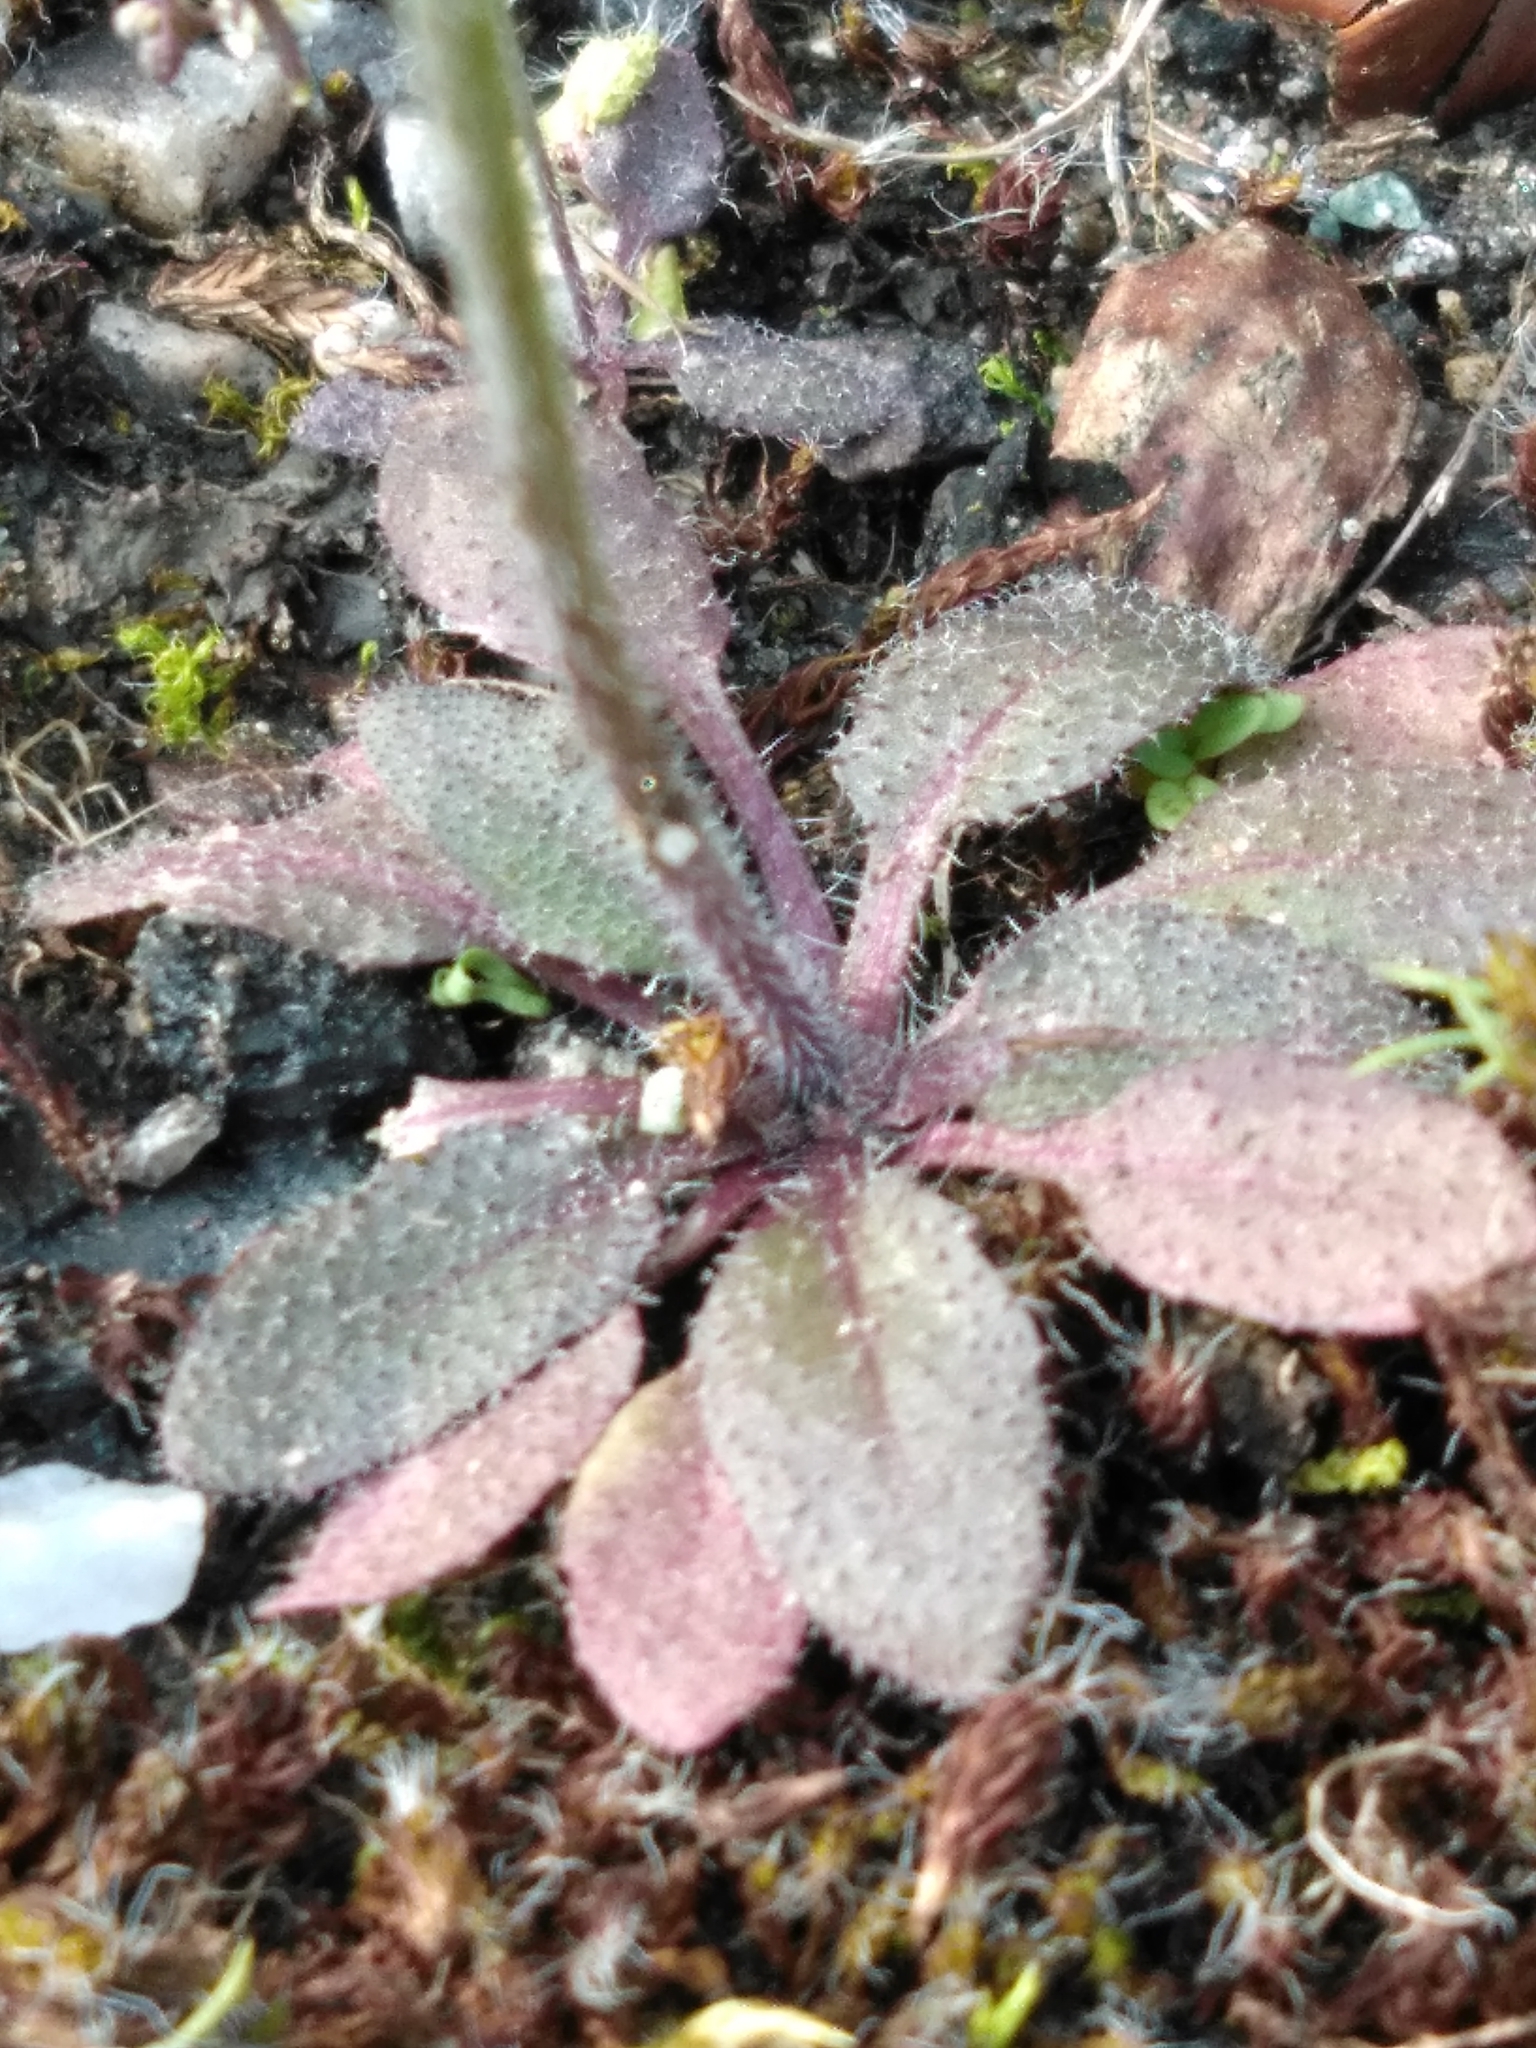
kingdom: Plantae
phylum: Tracheophyta
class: Magnoliopsida
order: Brassicales
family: Brassicaceae
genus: Arabidopsis
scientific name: Arabidopsis thaliana
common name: Thale cress
